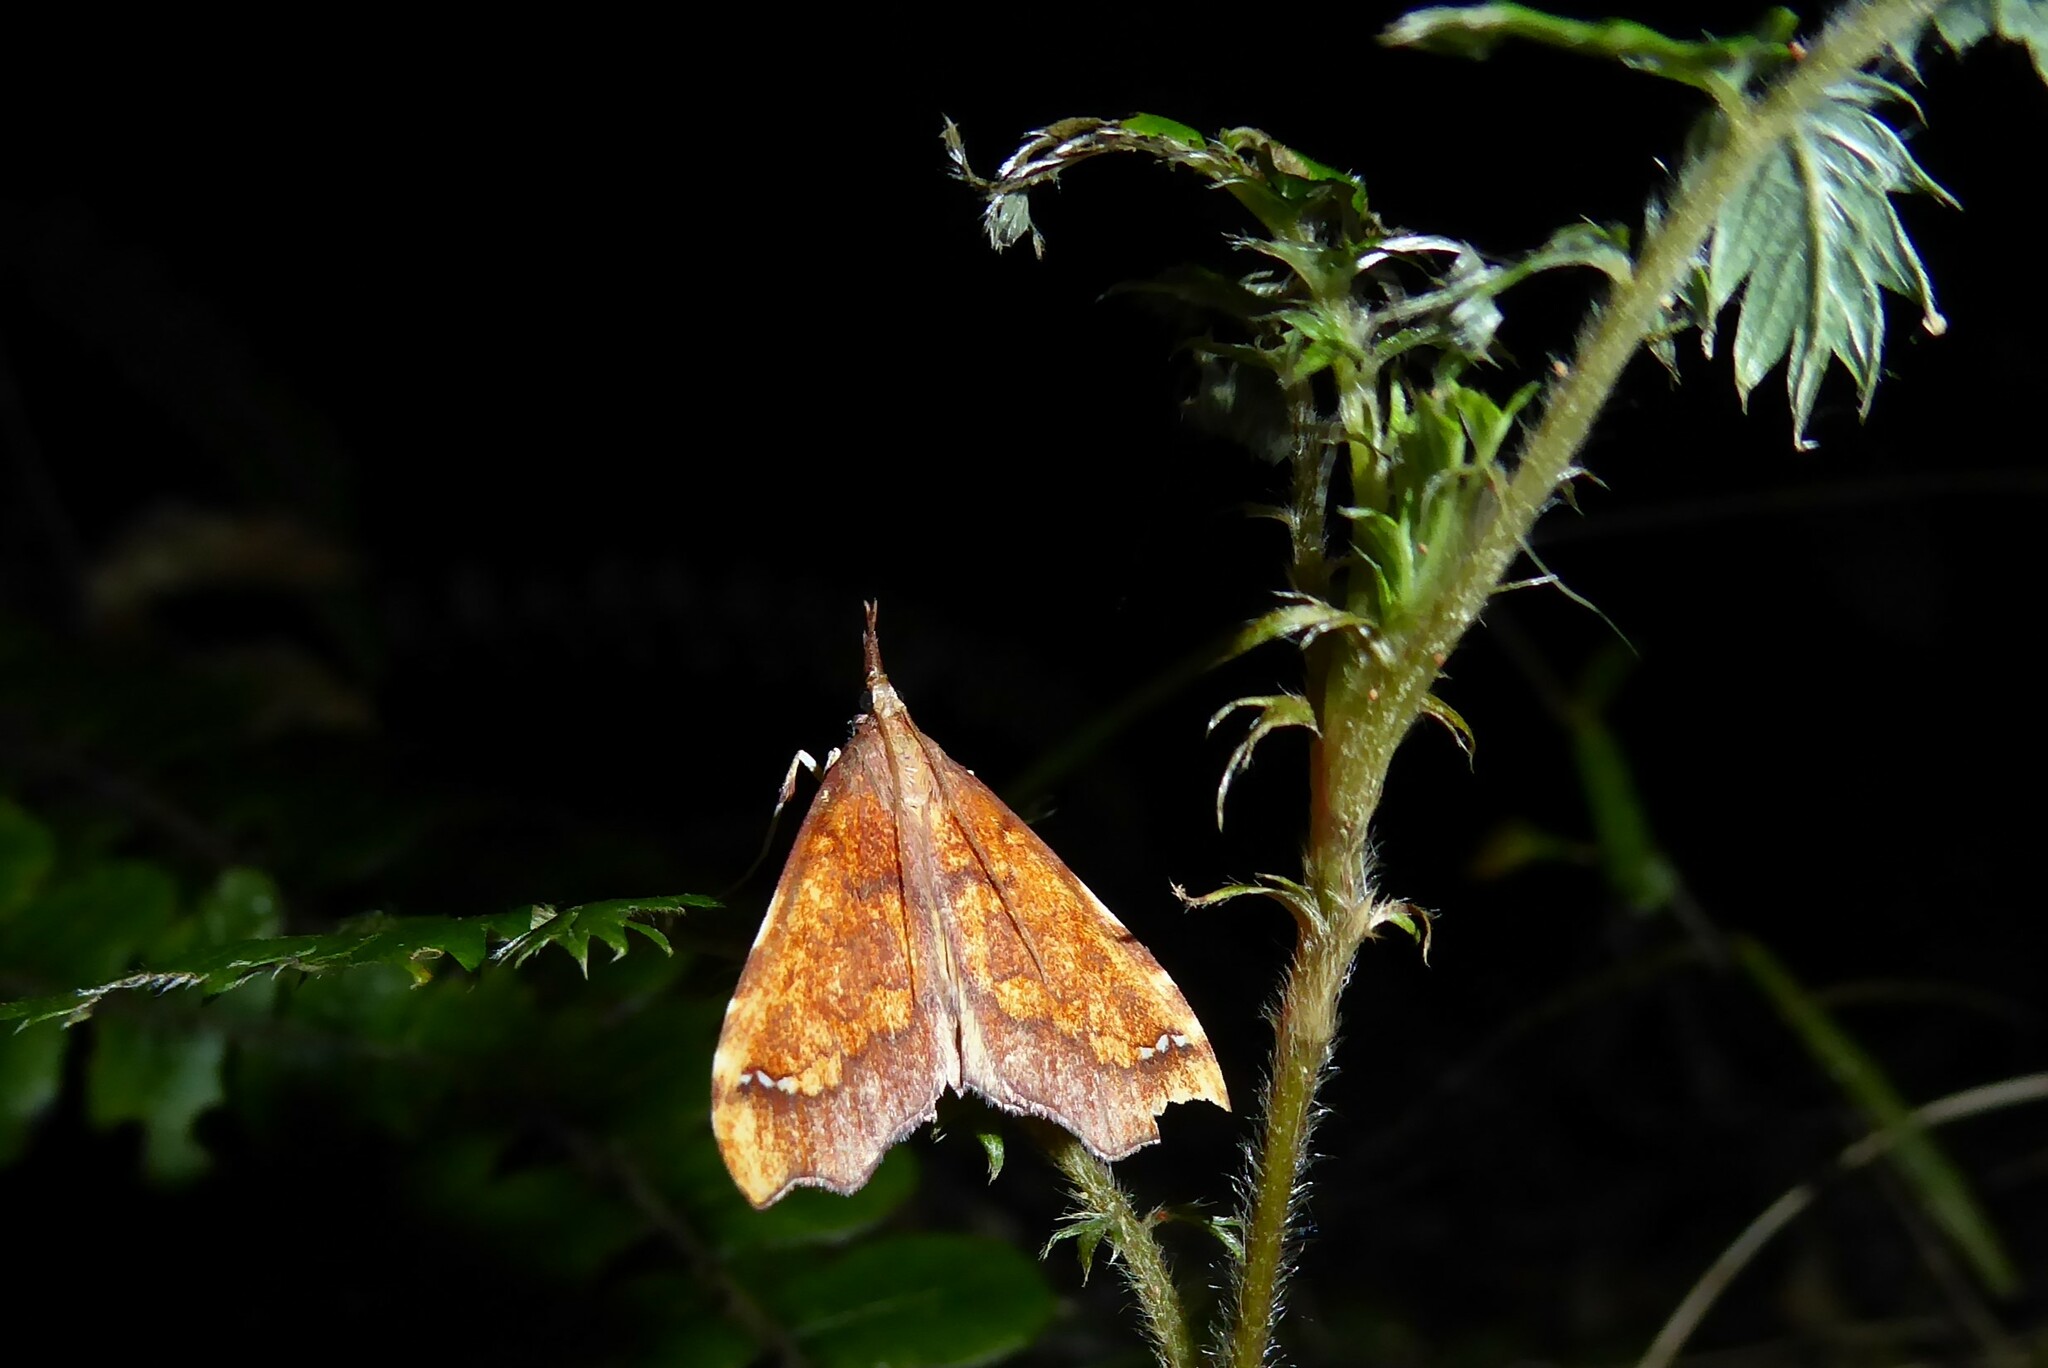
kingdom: Animalia
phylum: Arthropoda
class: Insecta
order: Lepidoptera
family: Crambidae
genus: Deana
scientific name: Deana hybreasalis
